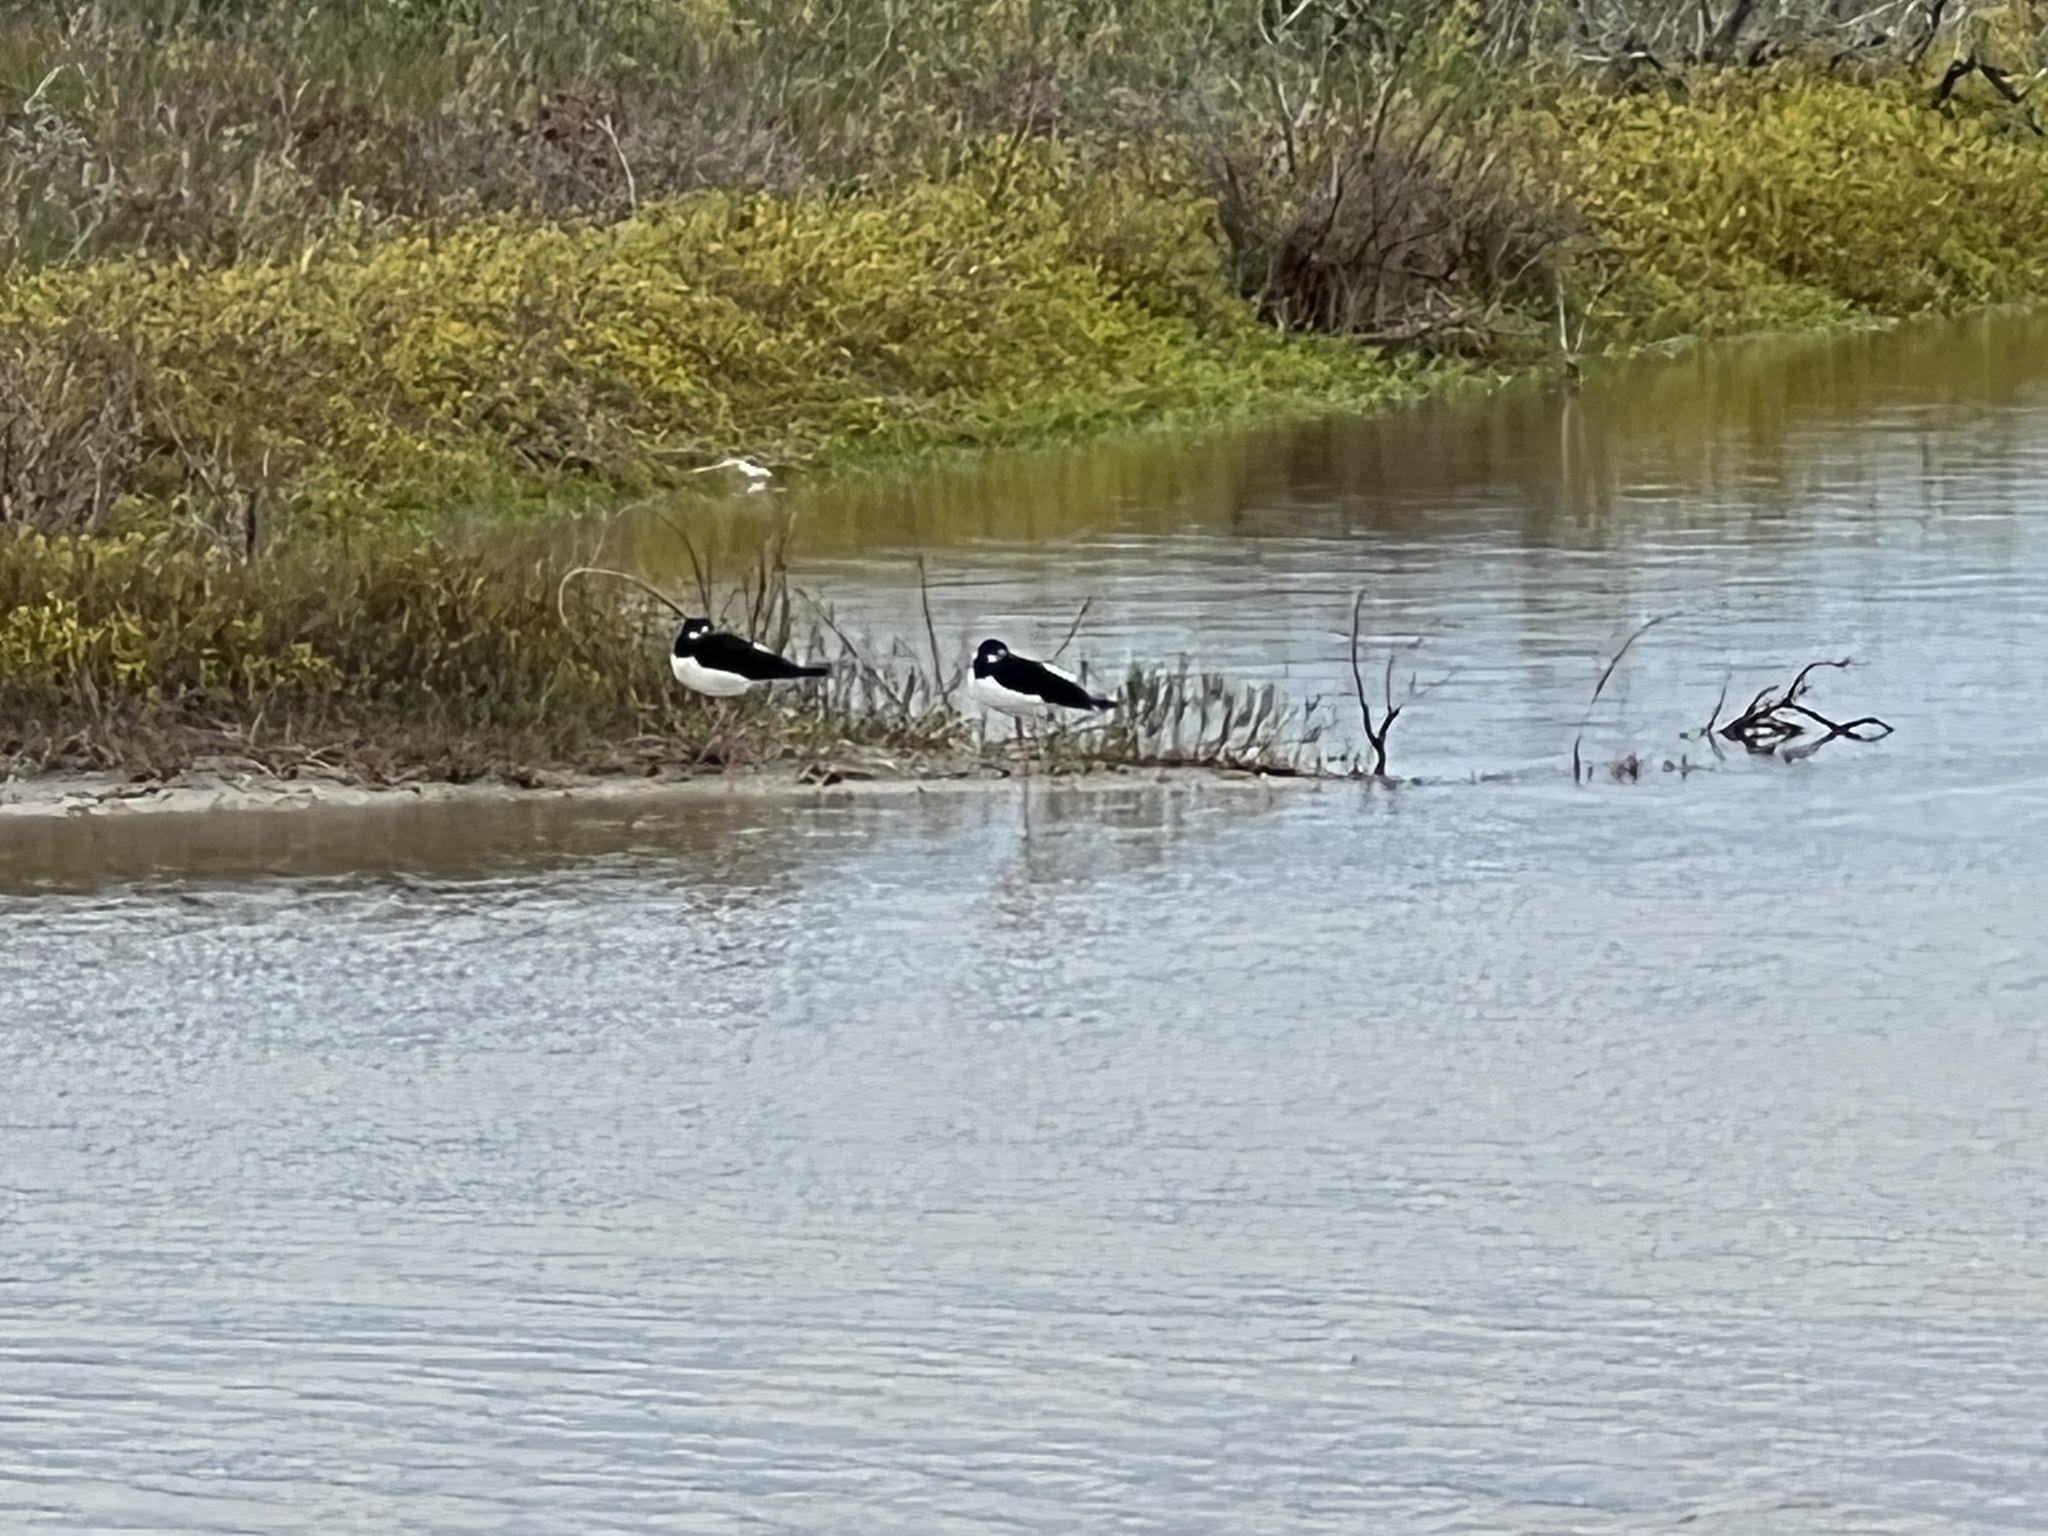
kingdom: Animalia
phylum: Chordata
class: Aves
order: Charadriiformes
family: Recurvirostridae
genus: Himantopus
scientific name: Himantopus mexicanus
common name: Black-necked stilt
